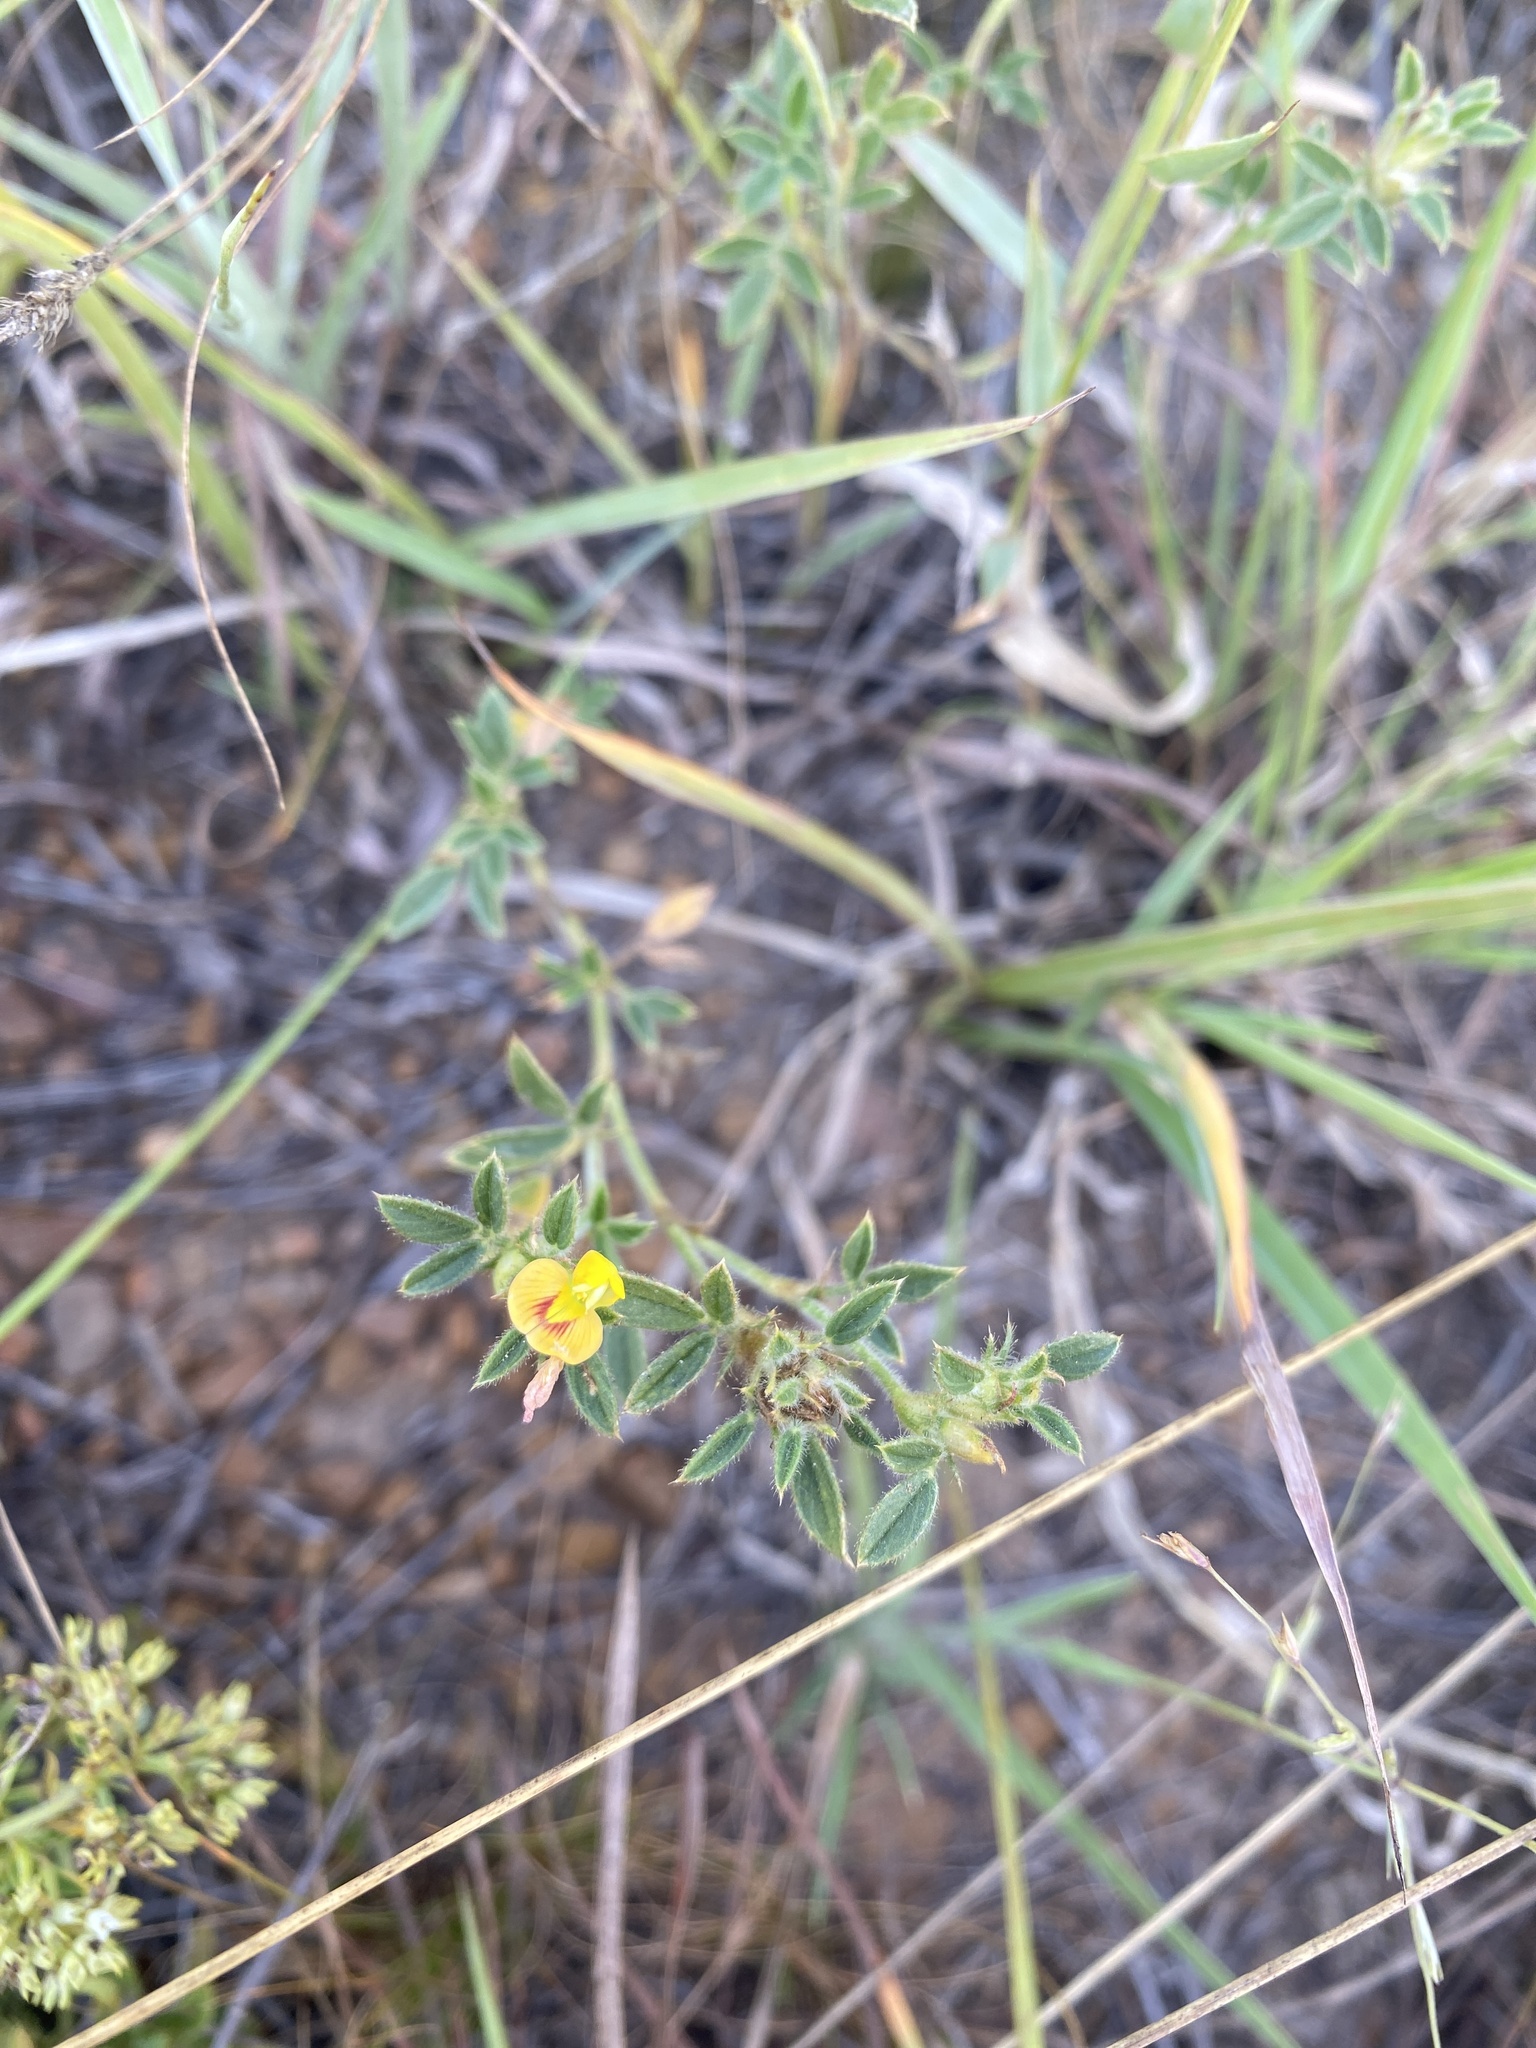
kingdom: Plantae
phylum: Tracheophyta
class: Magnoliopsida
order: Fabales
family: Fabaceae
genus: Stylosanthes
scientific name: Stylosanthes fruticosa
